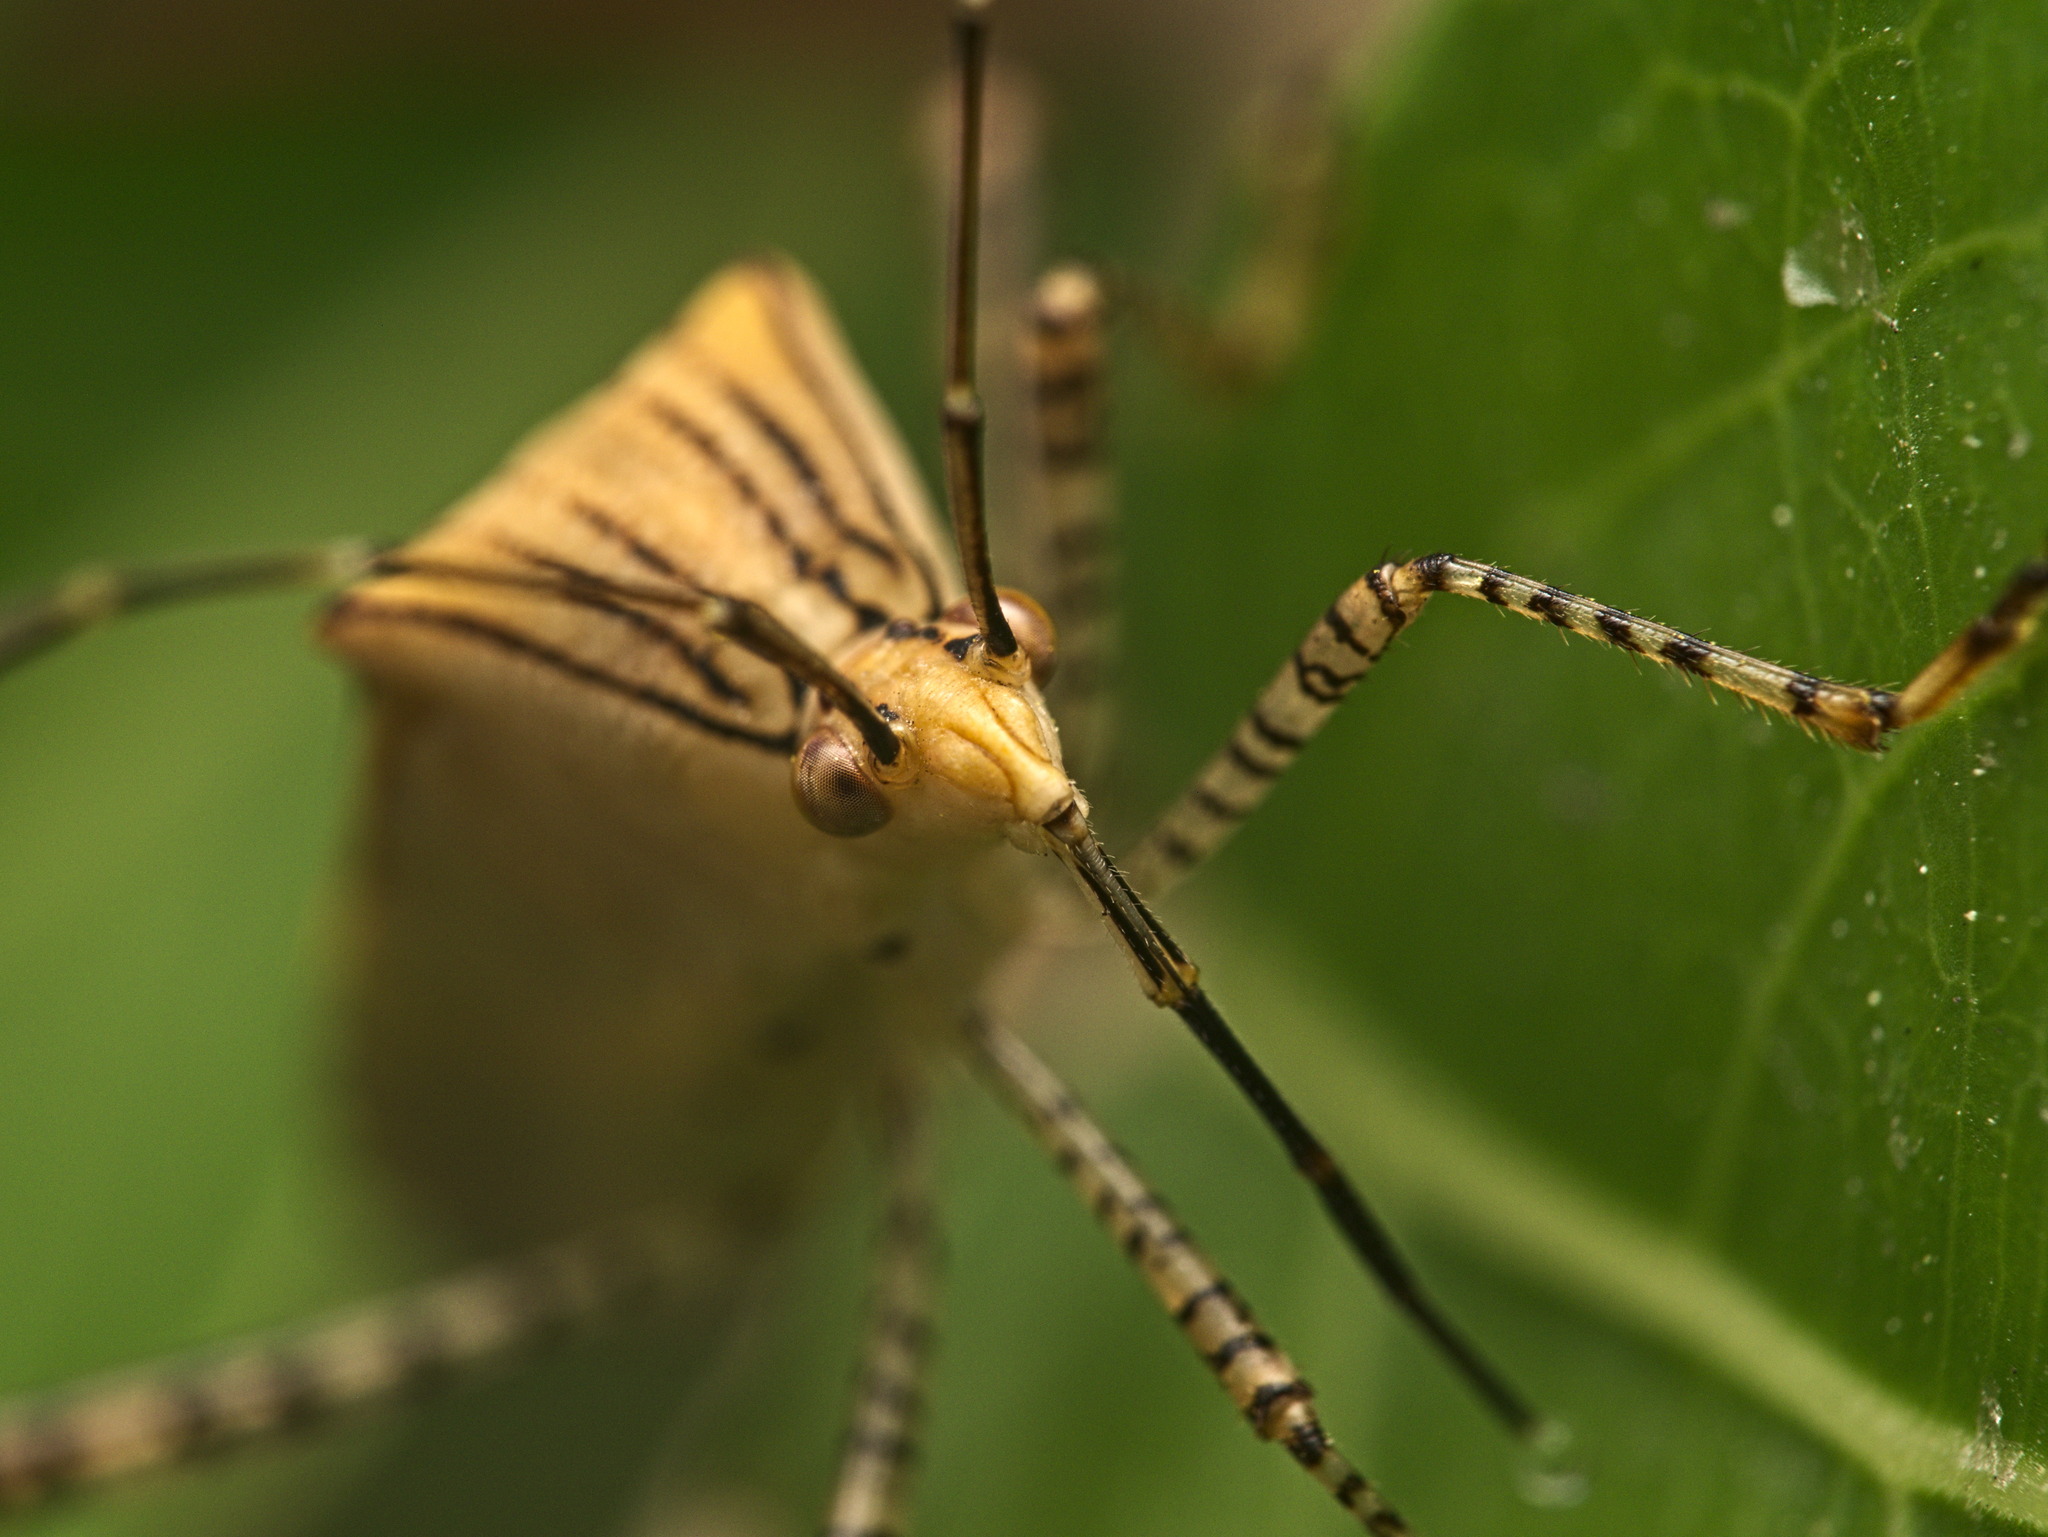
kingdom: Animalia
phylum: Arthropoda
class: Insecta
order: Hemiptera
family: Coreidae
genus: Hypselonotus
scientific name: Hypselonotus lineatus
